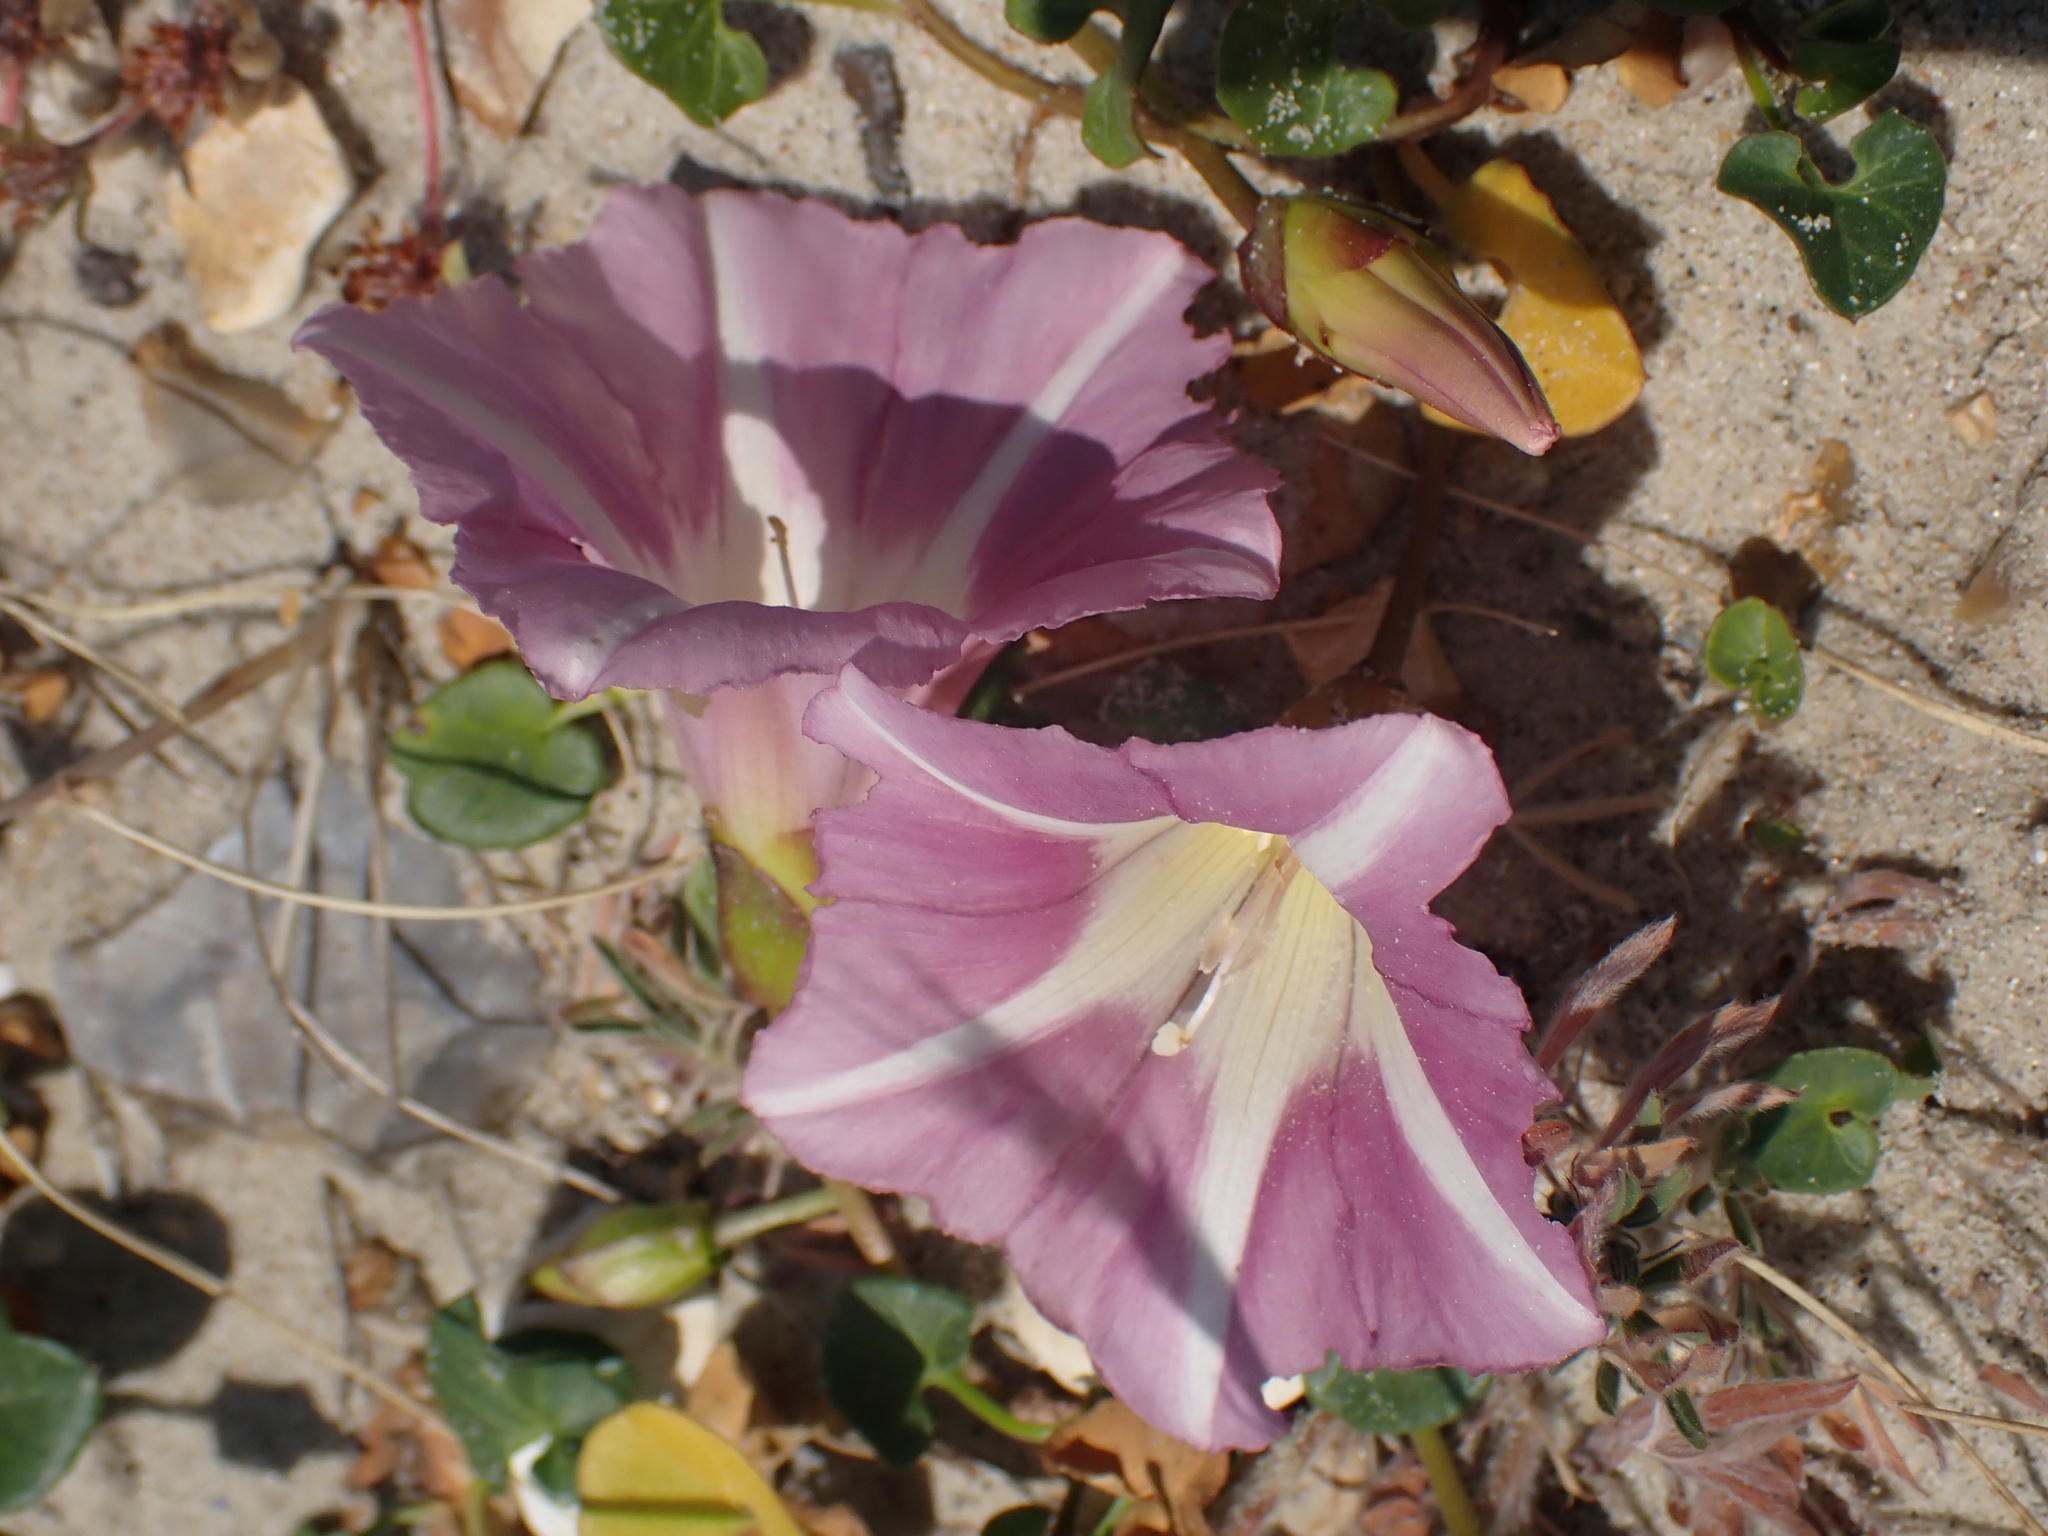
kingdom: Plantae
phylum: Tracheophyta
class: Magnoliopsida
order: Solanales
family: Convolvulaceae
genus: Calystegia
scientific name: Calystegia soldanella
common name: Sea bindweed
